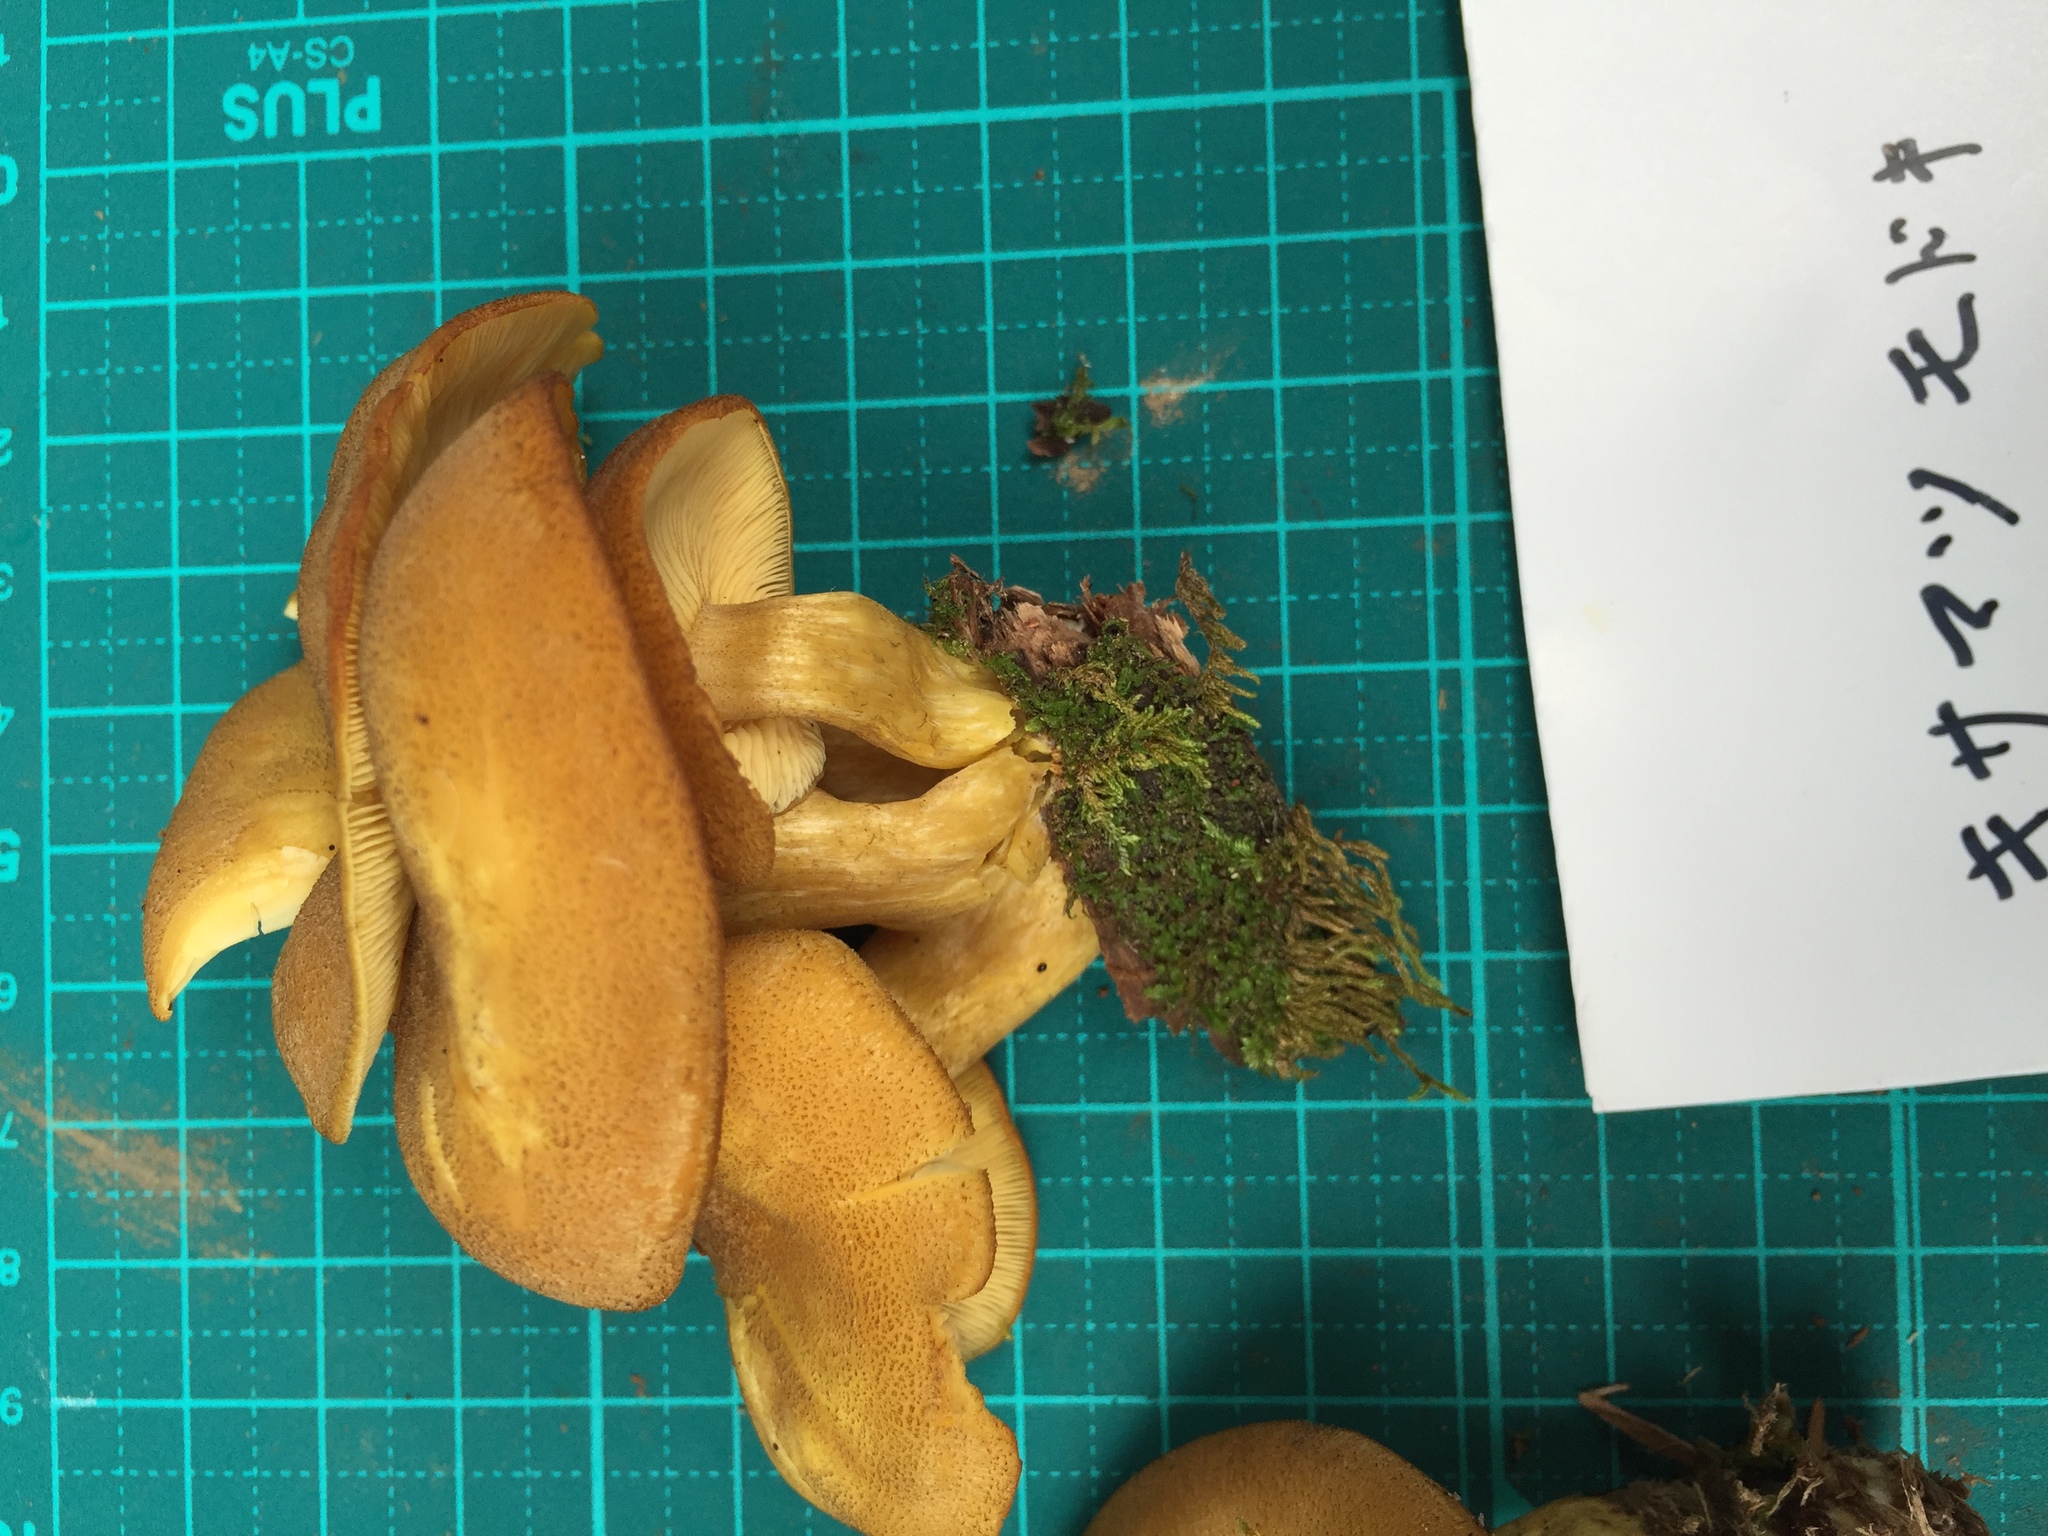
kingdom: Fungi
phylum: Basidiomycota
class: Agaricomycetes
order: Agaricales
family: Tricholomataceae
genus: Tricholomopsis
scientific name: Tricholomopsis decora
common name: Prunes and custard
